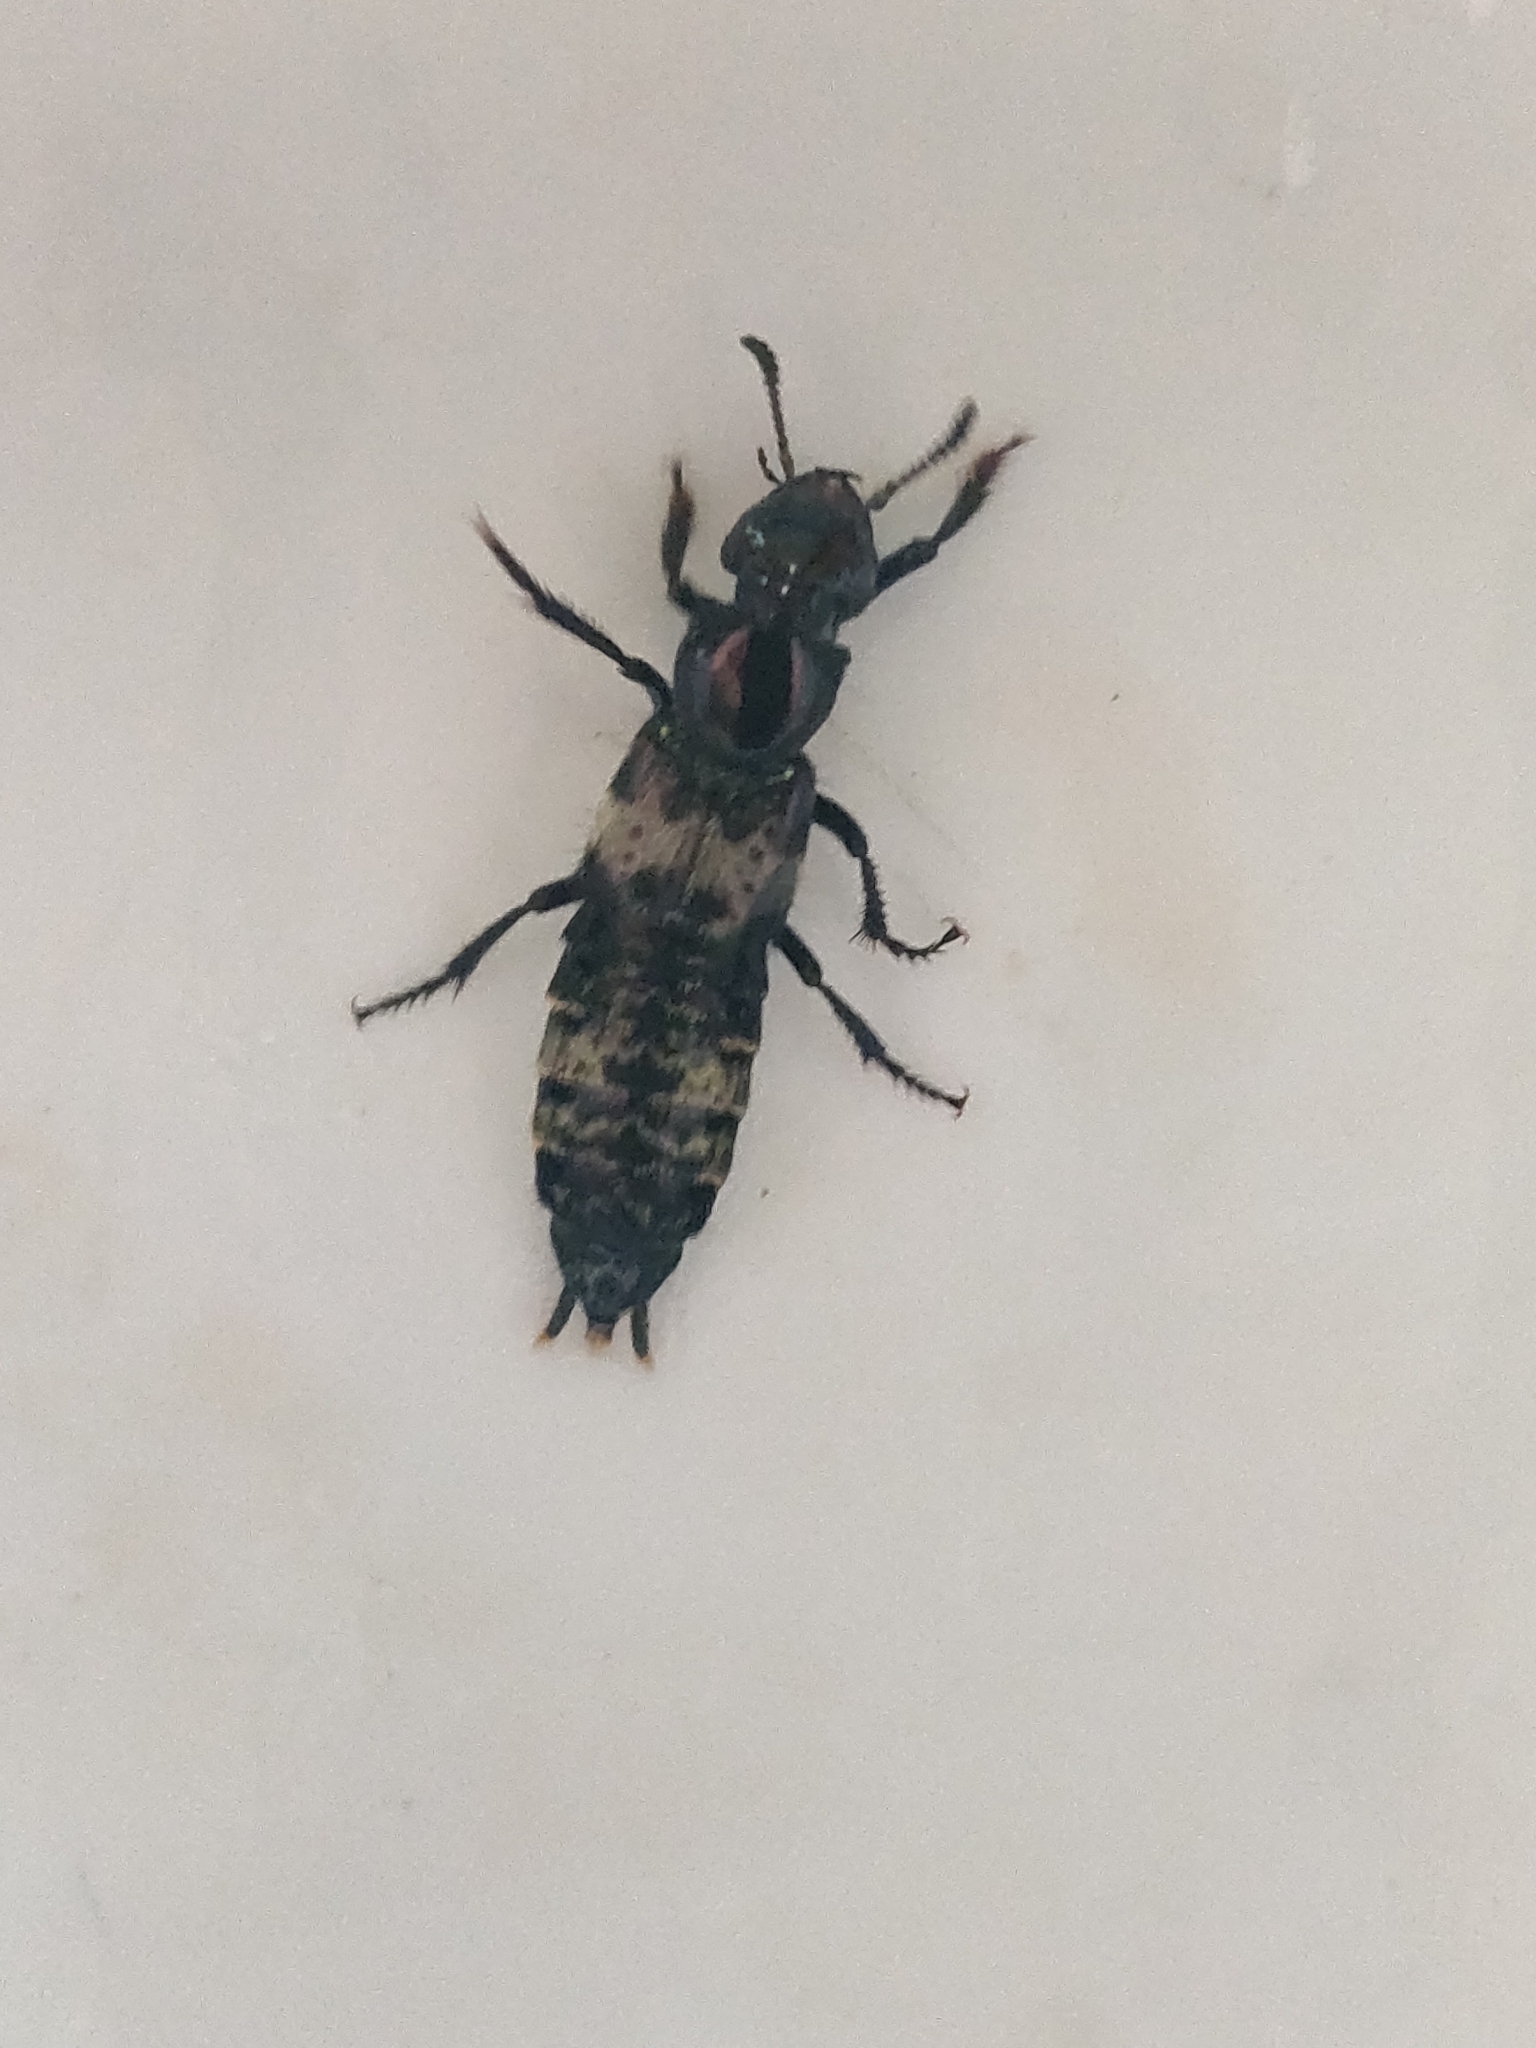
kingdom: Animalia
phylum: Arthropoda
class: Insecta
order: Coleoptera
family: Staphylinidae
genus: Creophilus
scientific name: Creophilus maxillosus
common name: Hairy rove beetle
